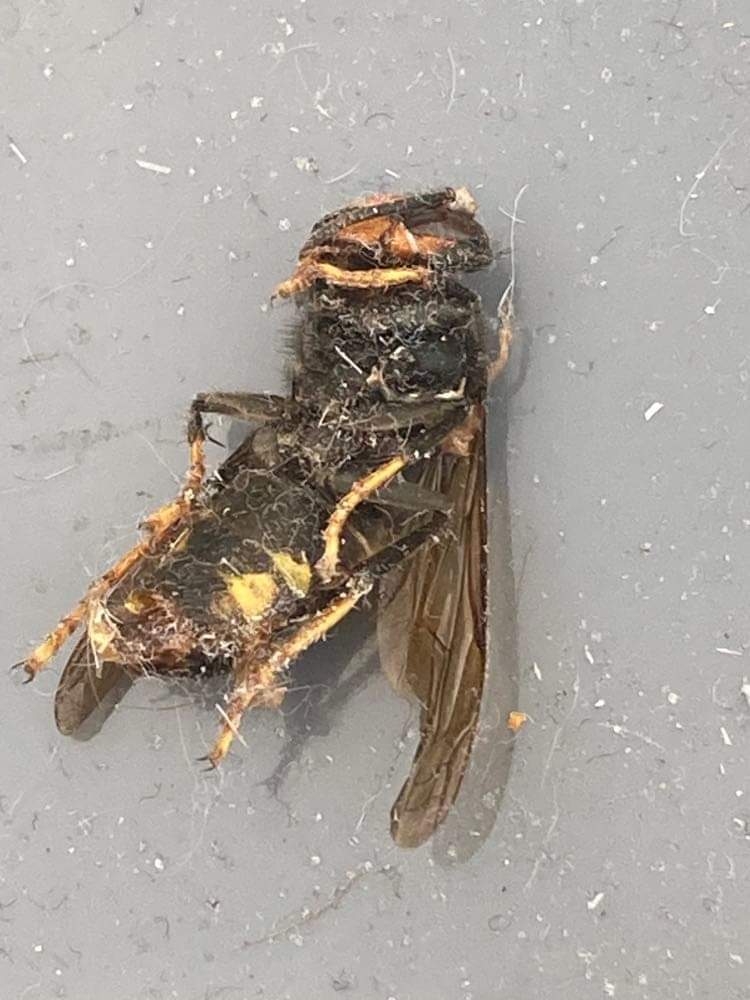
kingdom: Animalia
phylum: Arthropoda
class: Insecta
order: Hymenoptera
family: Vespidae
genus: Vespa
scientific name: Vespa velutina
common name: Asian hornet
